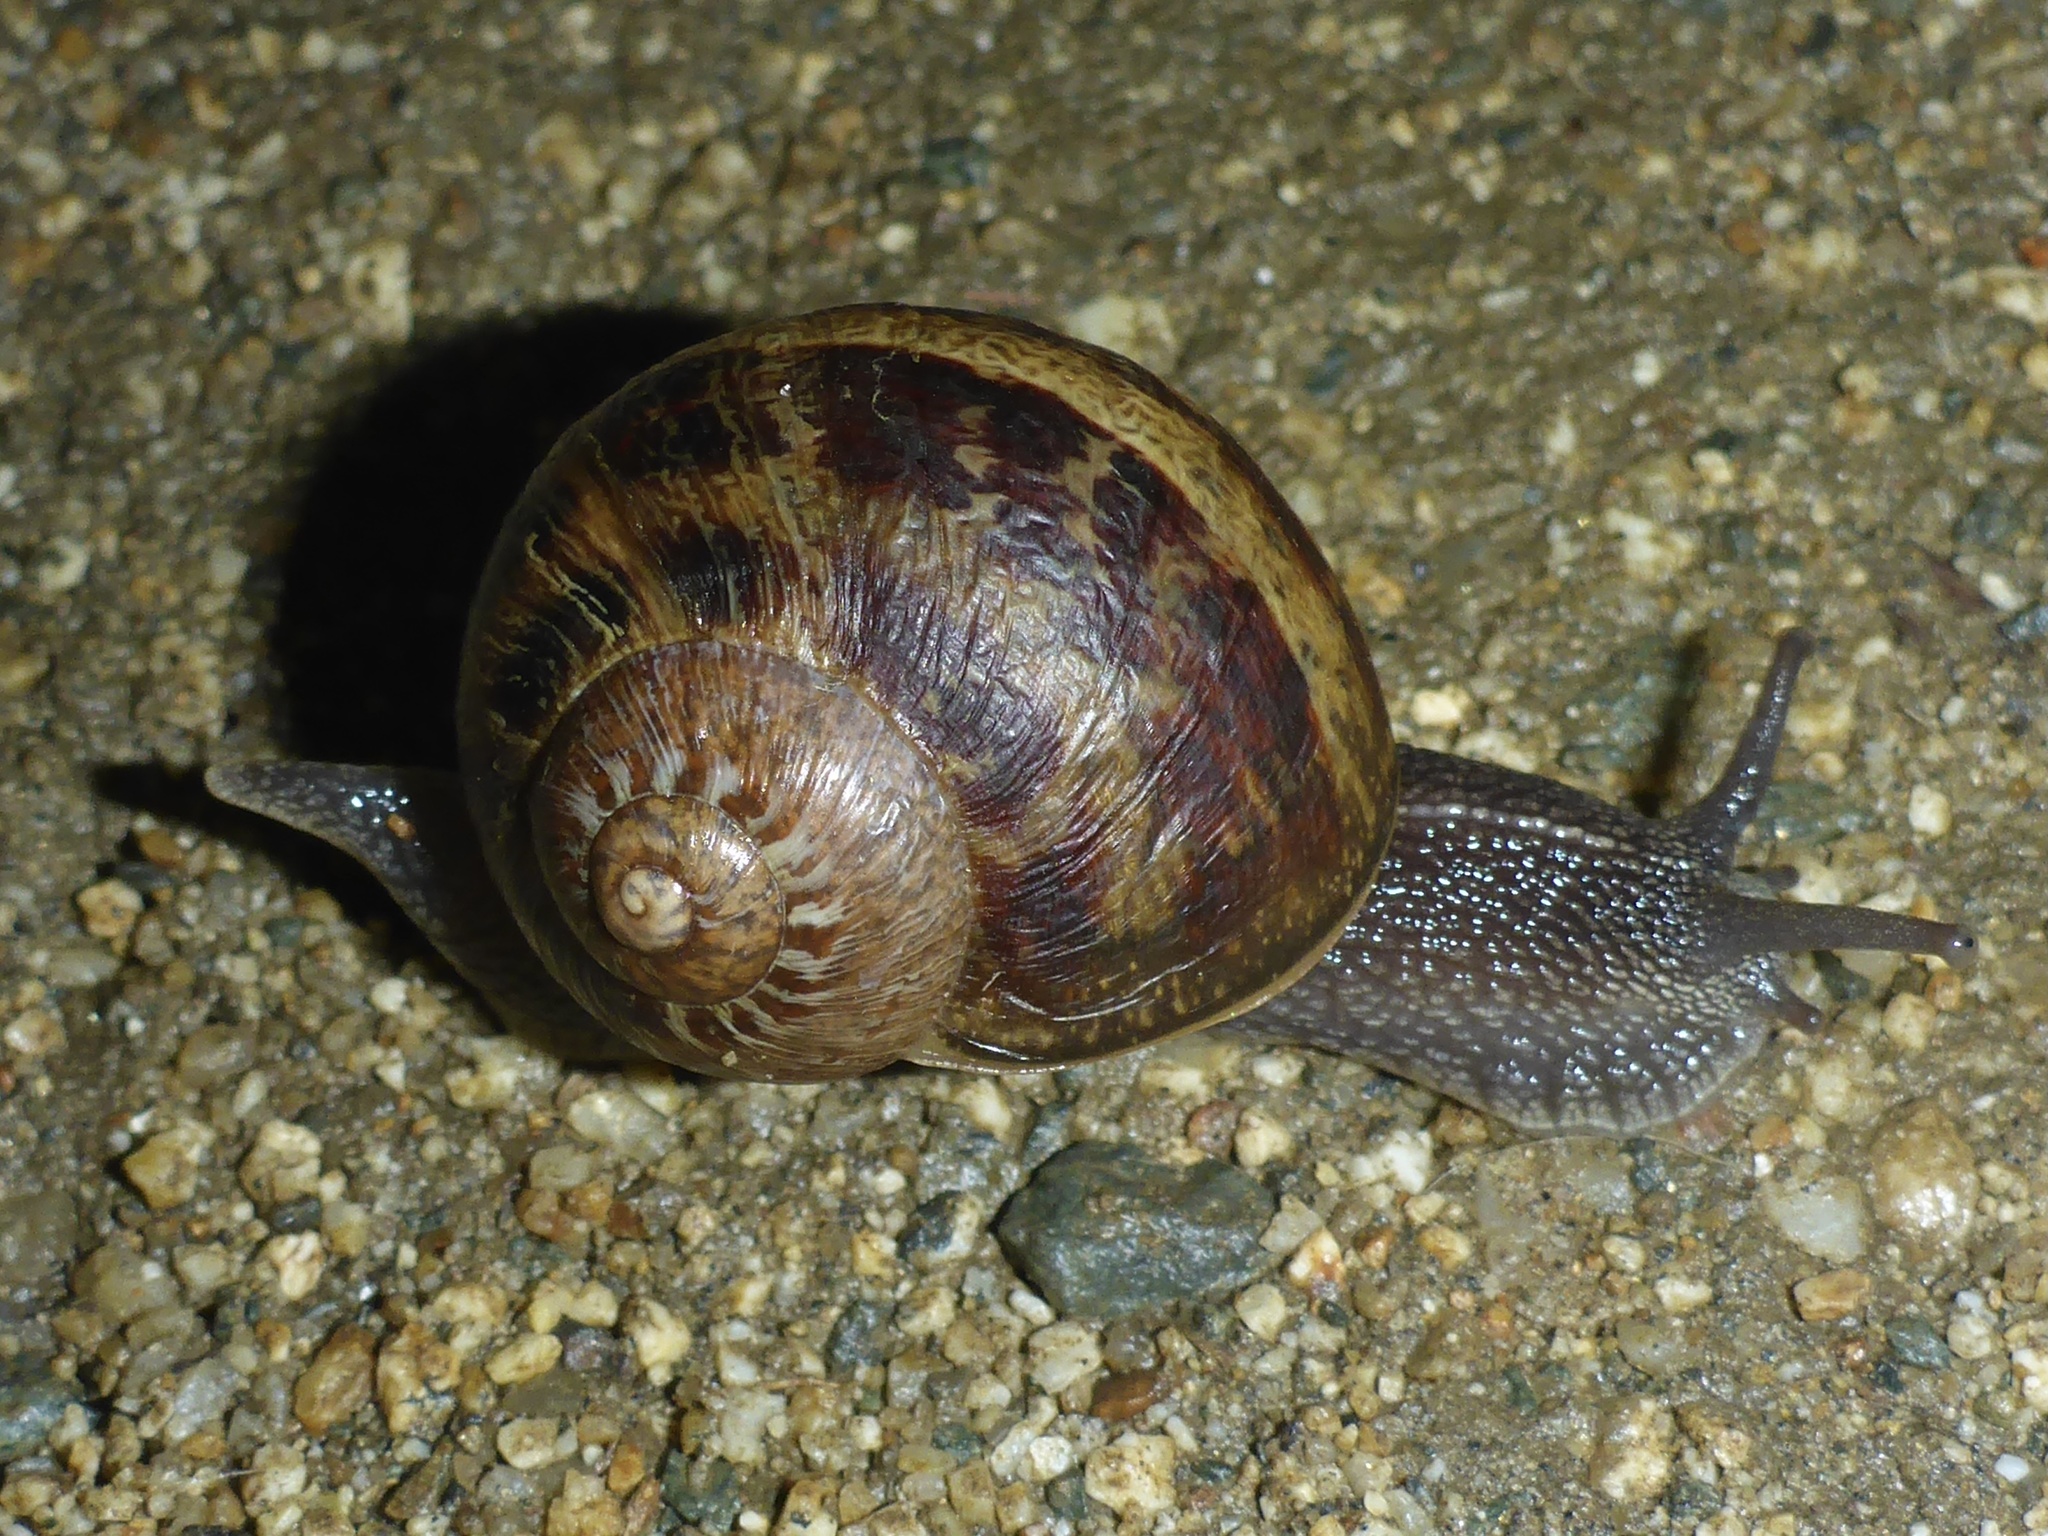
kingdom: Animalia
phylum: Mollusca
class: Gastropoda
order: Stylommatophora
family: Helicidae
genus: Cornu
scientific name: Cornu aspersum
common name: Brown garden snail
